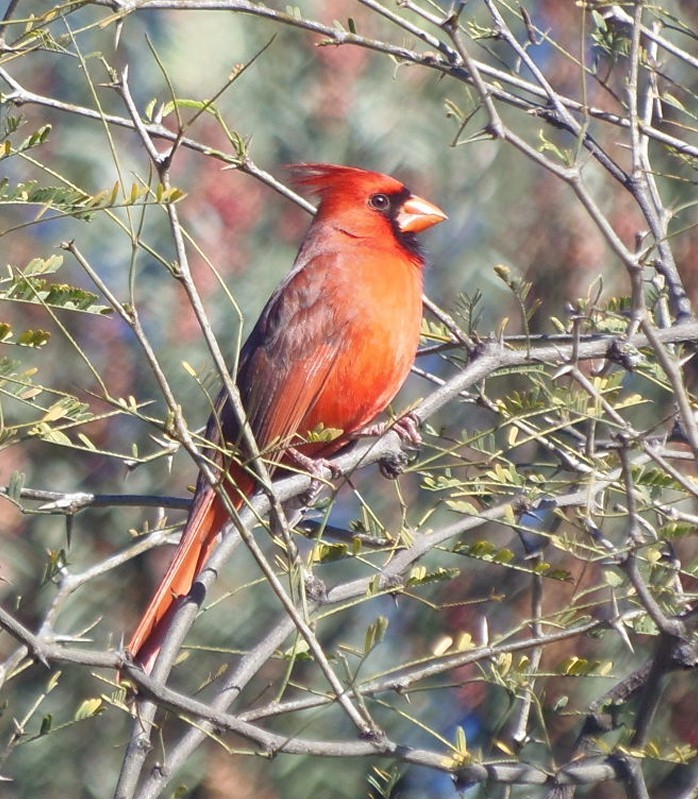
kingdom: Animalia
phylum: Chordata
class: Aves
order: Passeriformes
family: Cardinalidae
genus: Cardinalis
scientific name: Cardinalis cardinalis
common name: Northern cardinal
